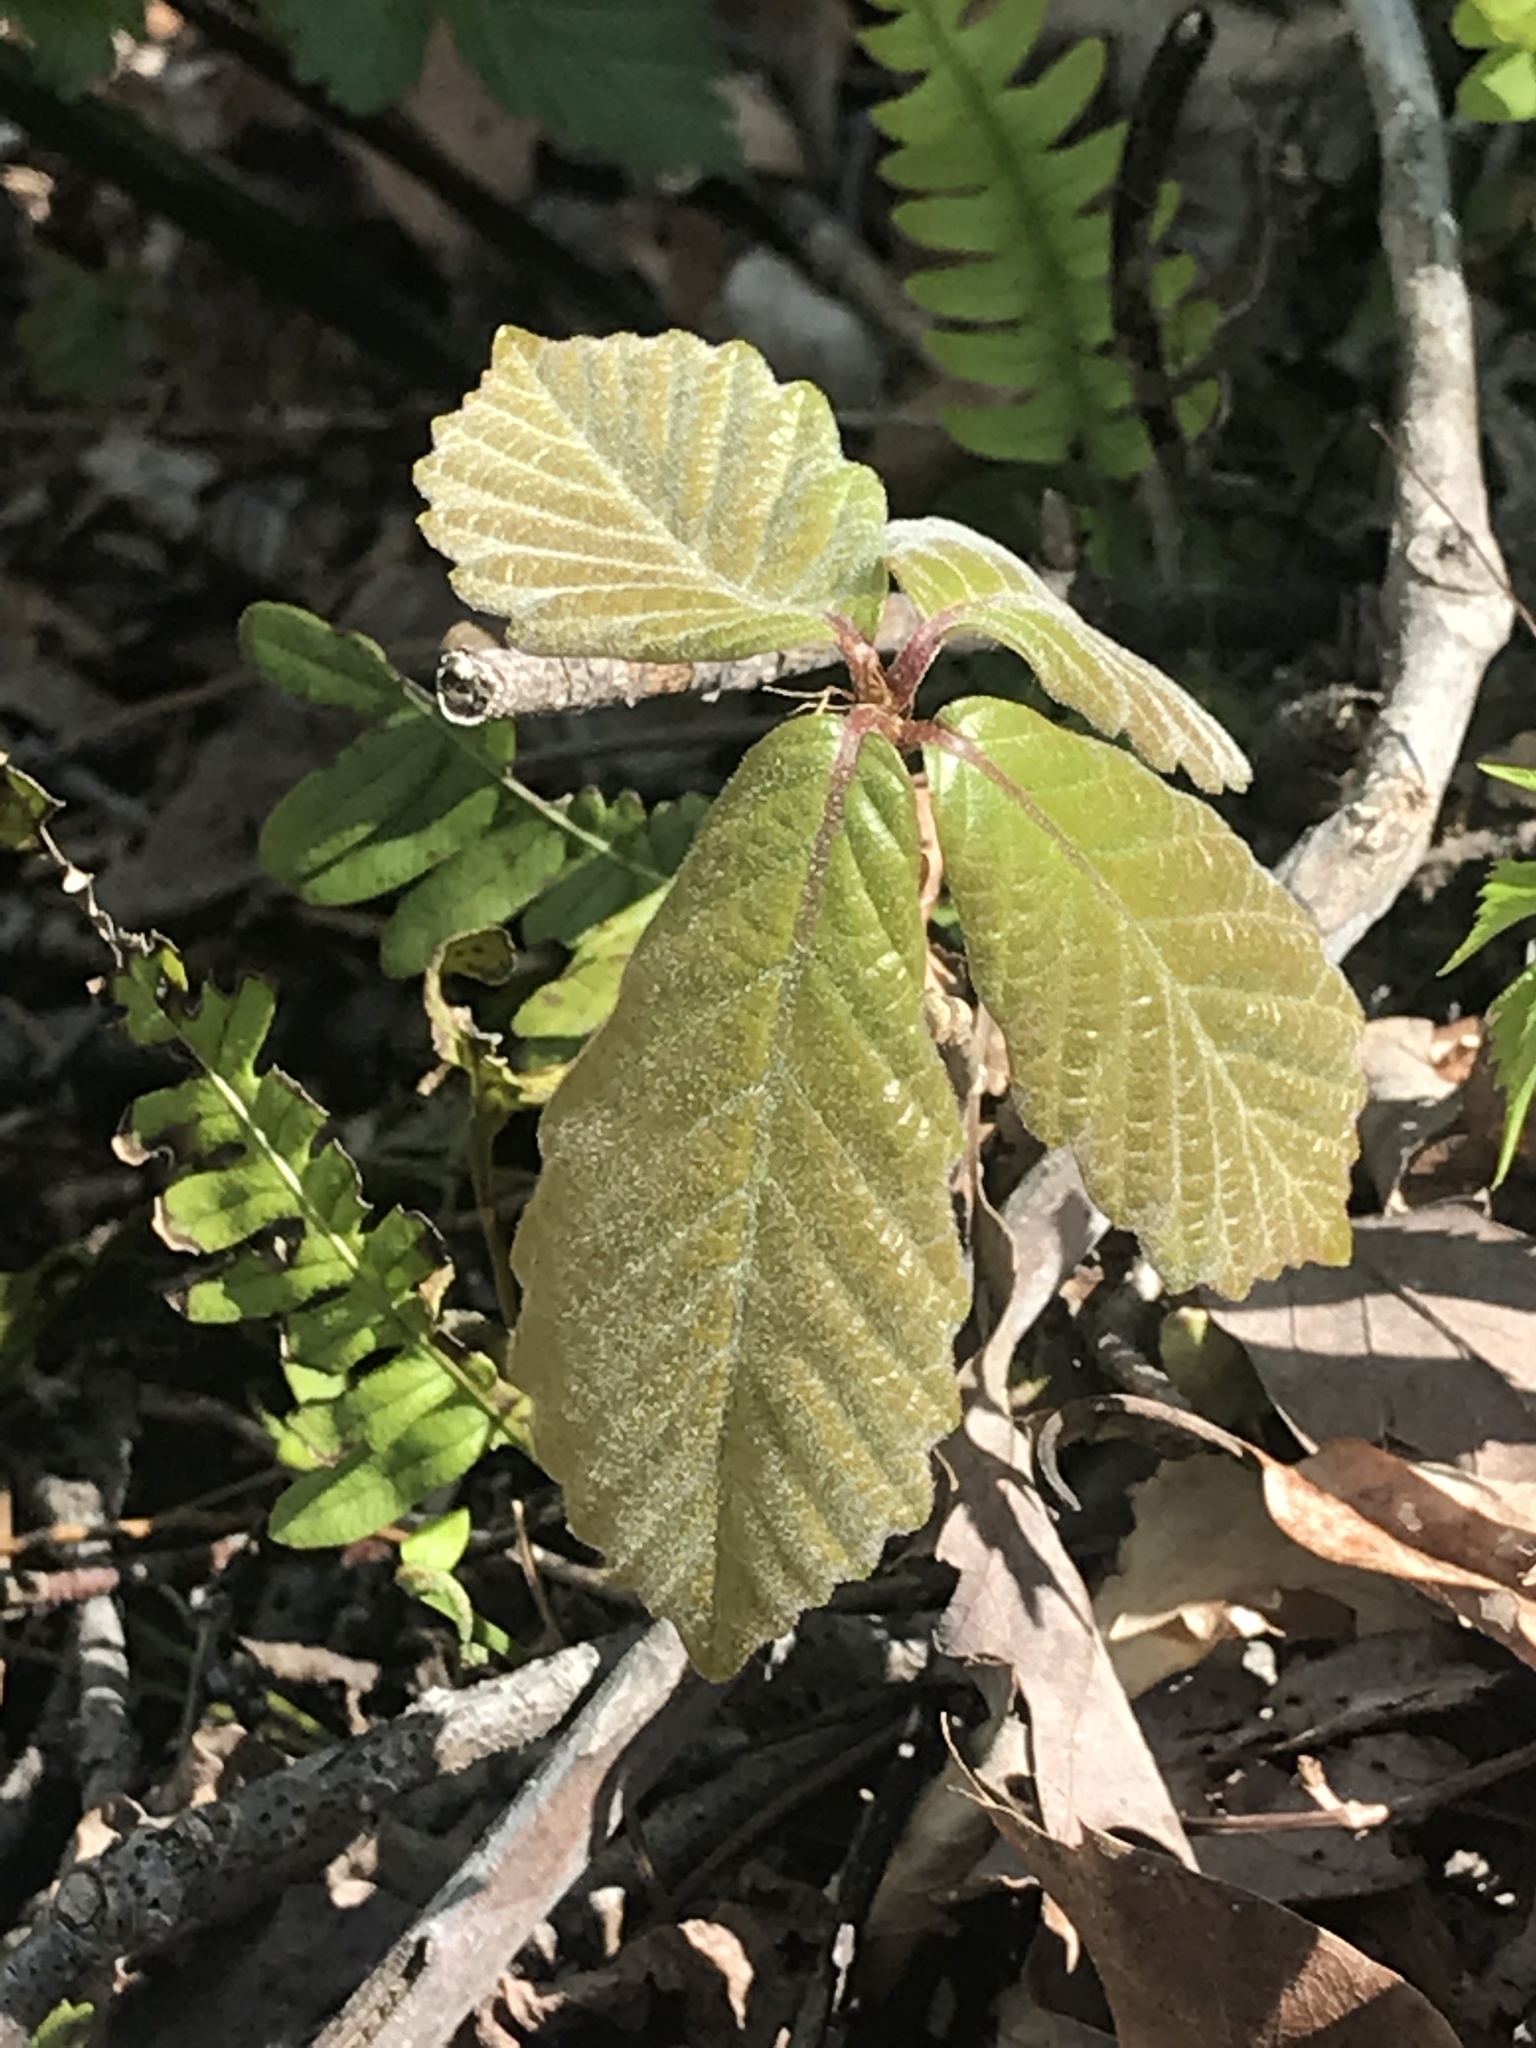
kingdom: Plantae
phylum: Tracheophyta
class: Magnoliopsida
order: Fagales
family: Fagaceae
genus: Quercus
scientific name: Quercus montana
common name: Chestnut oak
